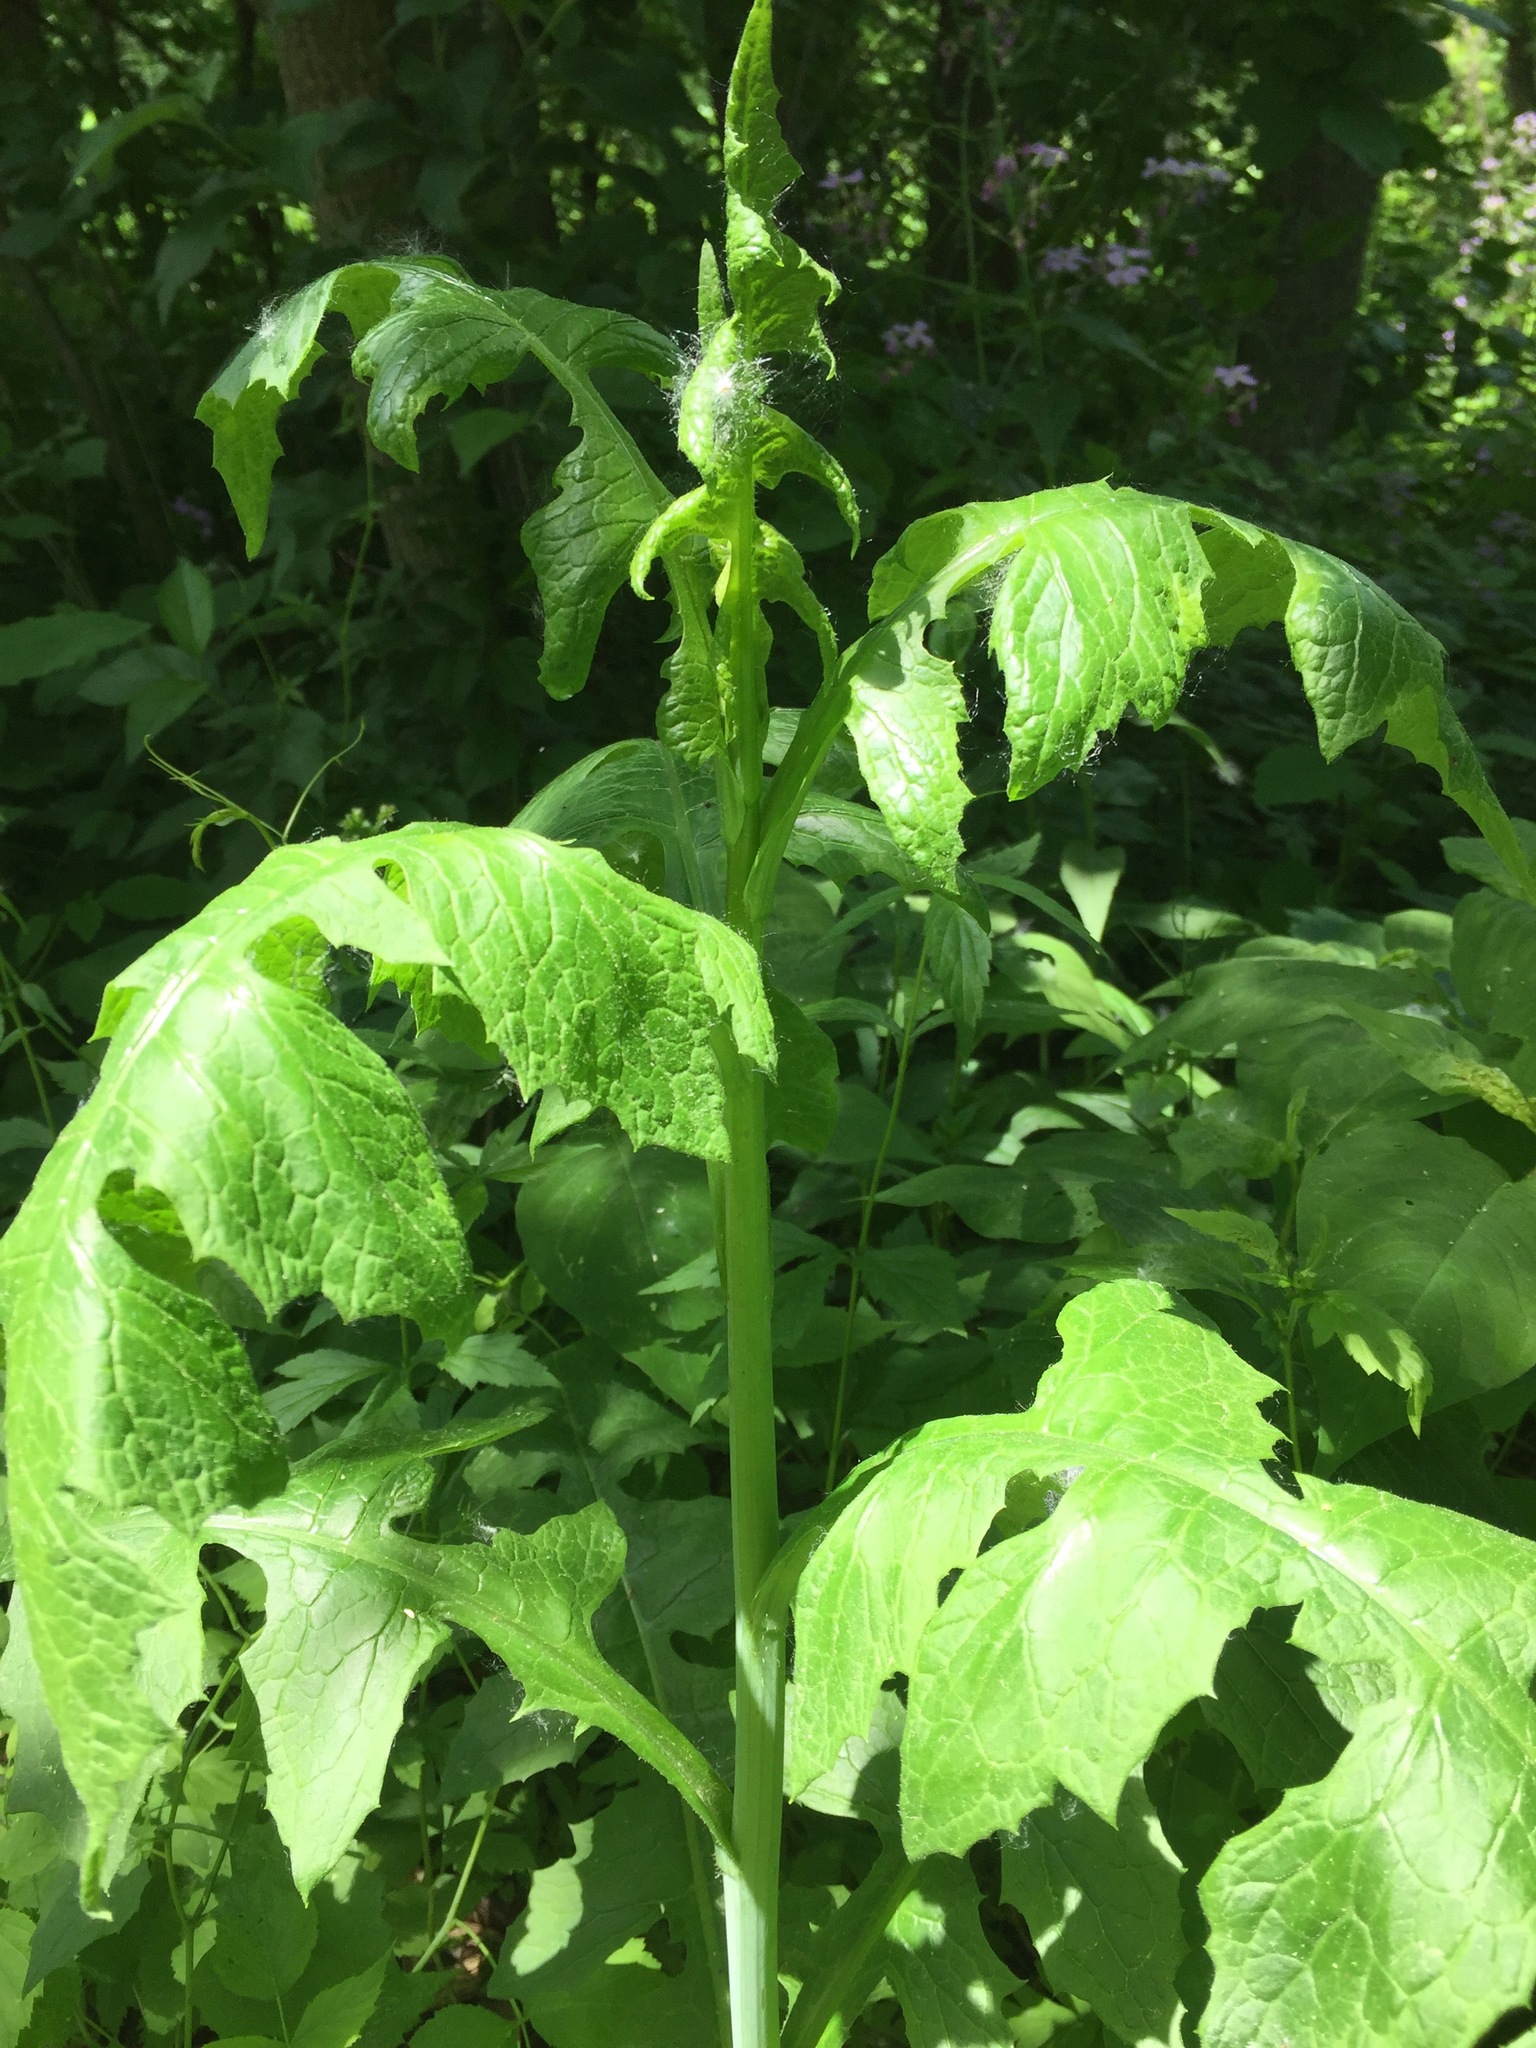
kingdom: Plantae
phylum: Tracheophyta
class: Magnoliopsida
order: Asterales
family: Asteraceae
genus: Lactuca
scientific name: Lactuca biennis
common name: Blue wood lettuce
